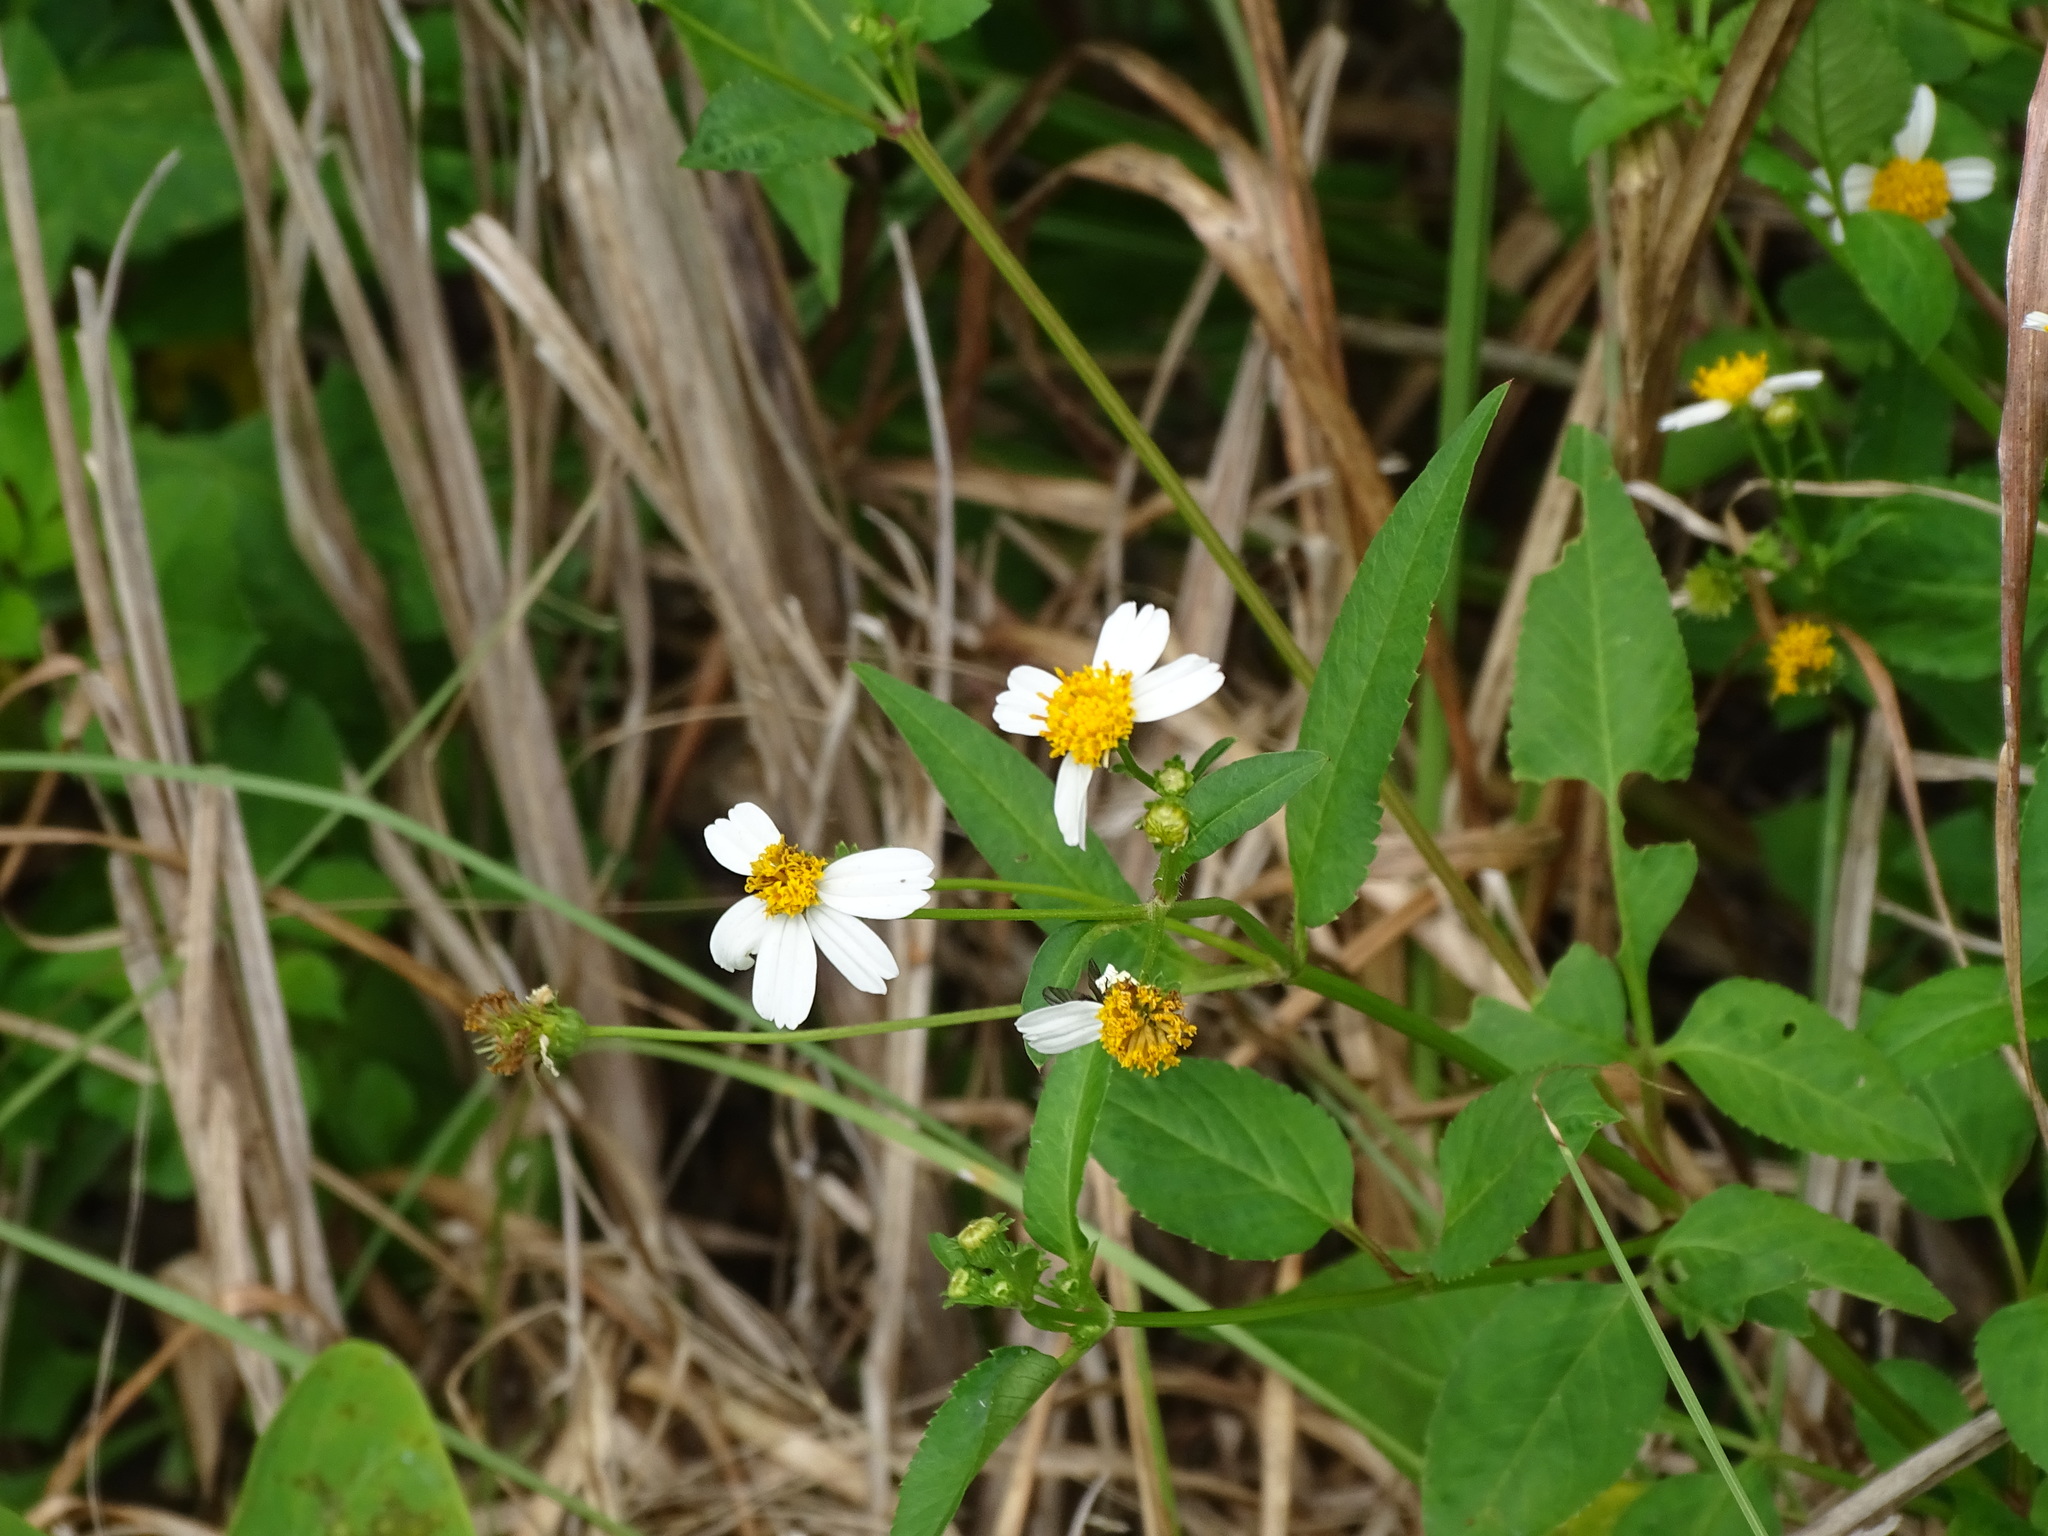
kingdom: Plantae
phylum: Tracheophyta
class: Magnoliopsida
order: Asterales
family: Asteraceae
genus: Bidens
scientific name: Bidens alba
